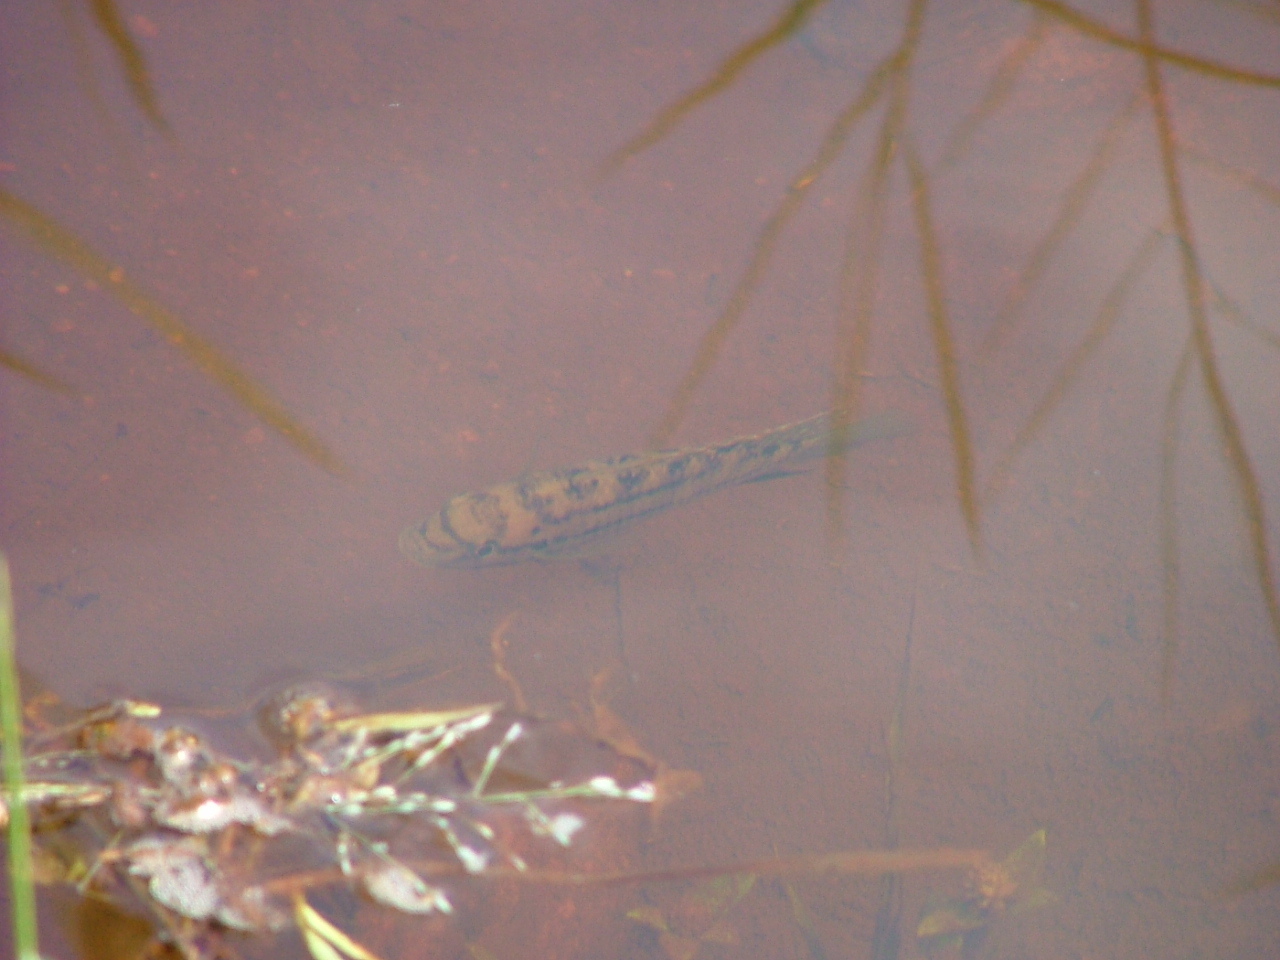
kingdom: Animalia
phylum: Chordata
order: Perciformes
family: Cichlidae
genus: Tilapia
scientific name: Tilapia sparrmanii
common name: Banded tilapia
